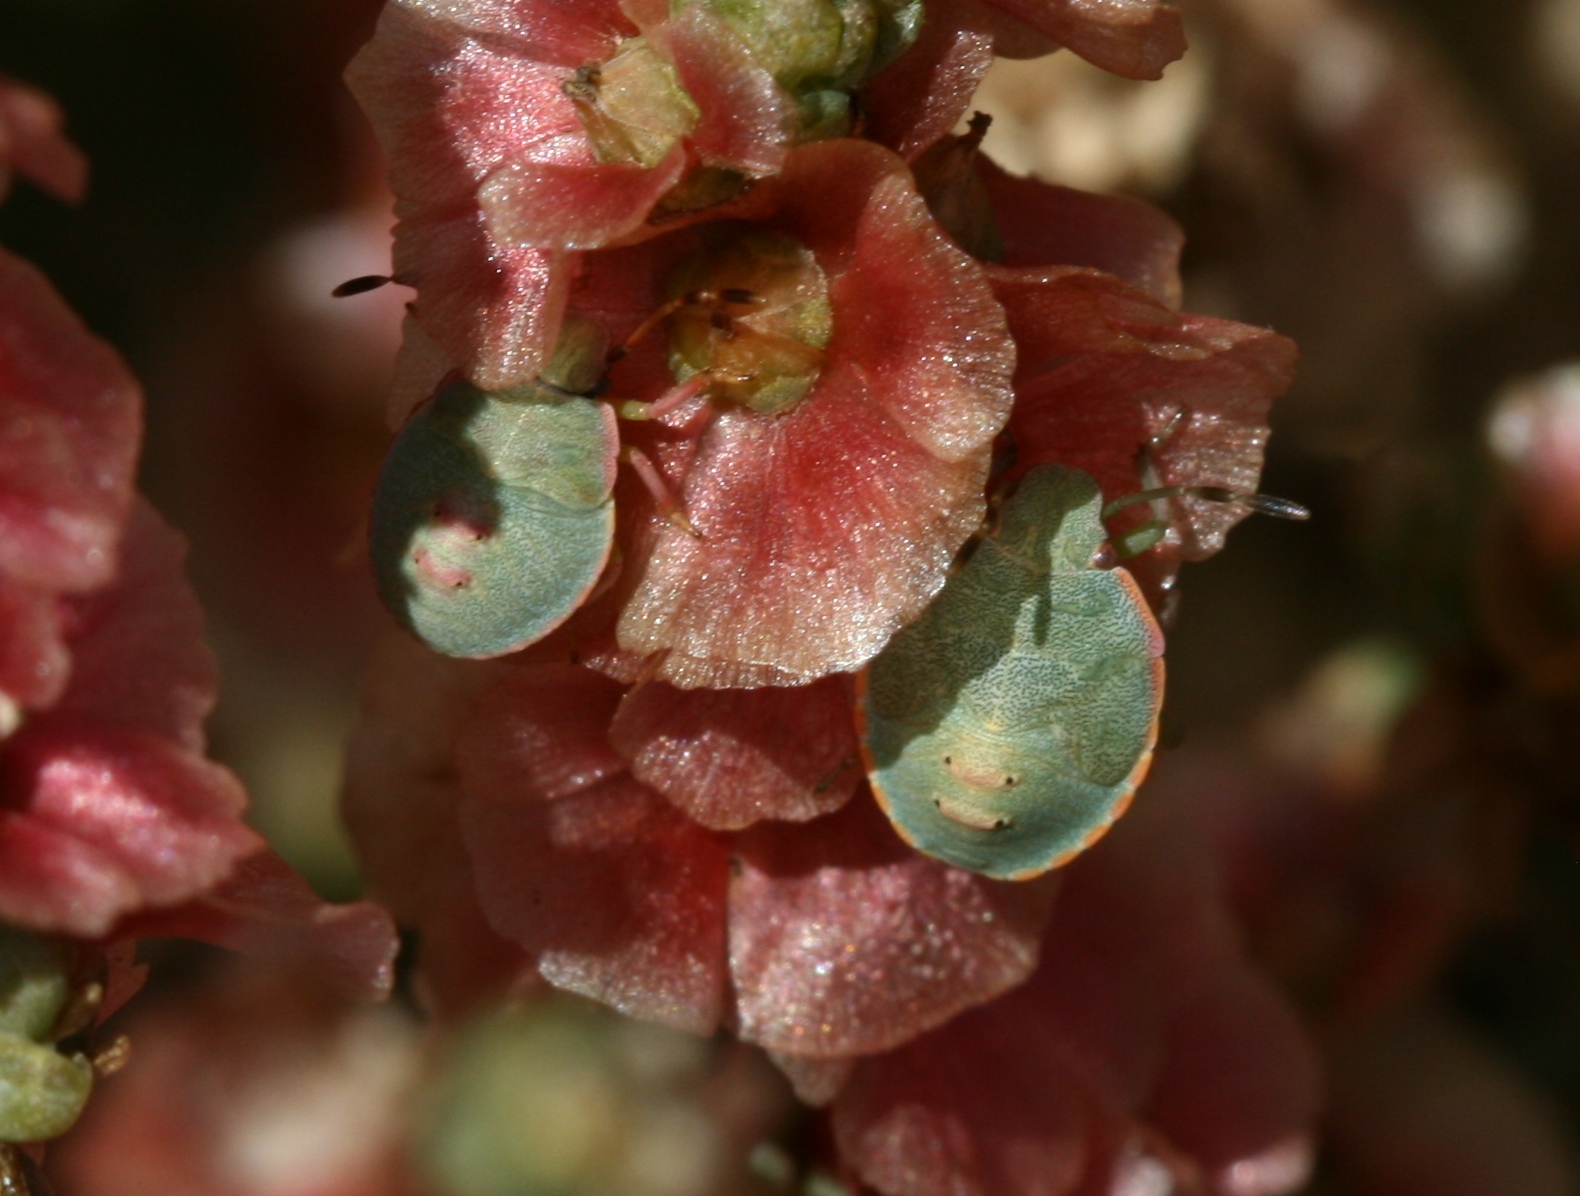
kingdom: Animalia
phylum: Arthropoda
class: Insecta
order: Hemiptera
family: Pentatomidae
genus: Brachynema
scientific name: Brachynema cinctum
